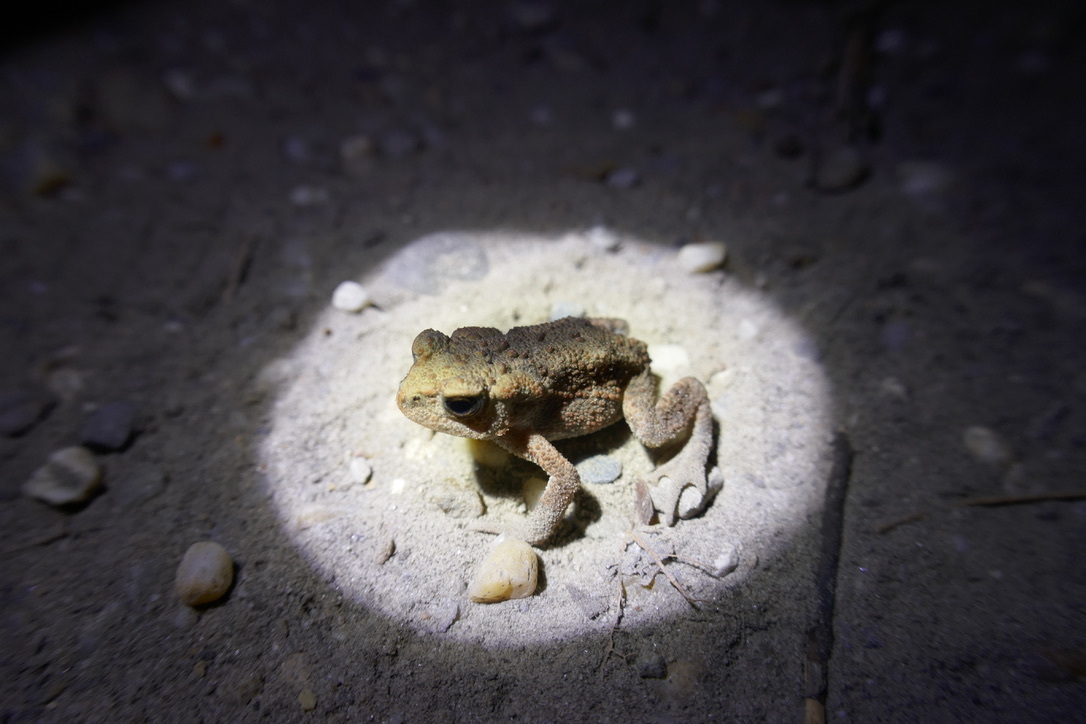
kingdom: Animalia
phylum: Chordata
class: Amphibia
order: Anura
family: Bufonidae
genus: Bufo
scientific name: Bufo bufo
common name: Common toad
